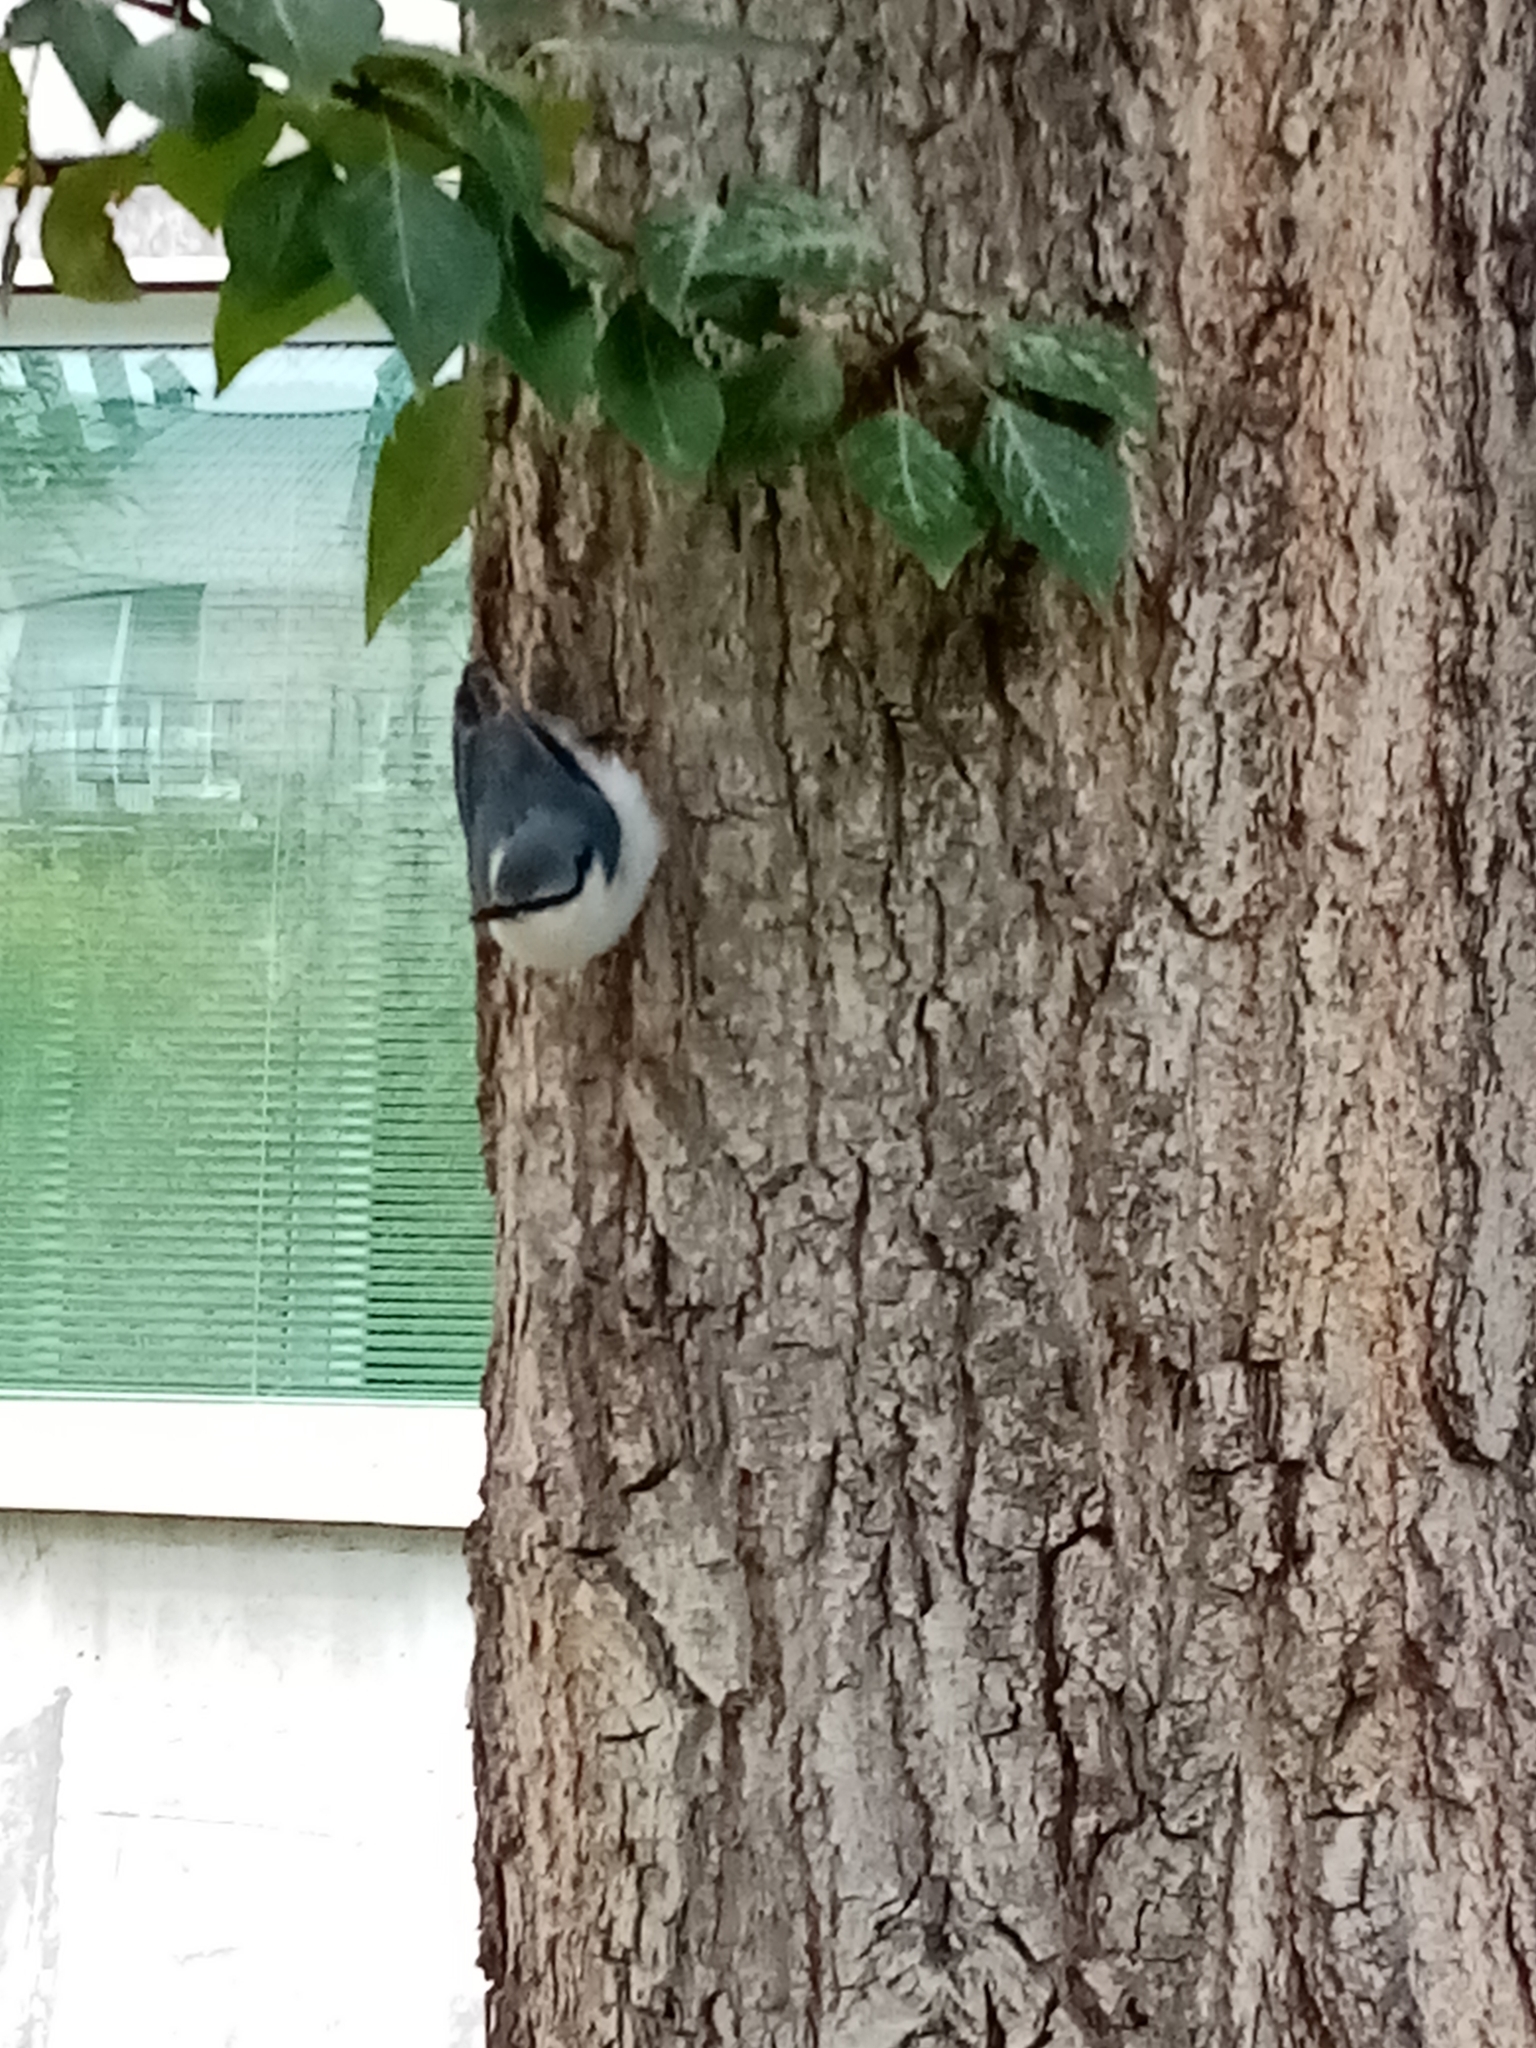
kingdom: Animalia
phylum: Chordata
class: Aves
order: Passeriformes
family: Sittidae
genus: Sitta
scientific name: Sitta europaea
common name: Eurasian nuthatch
